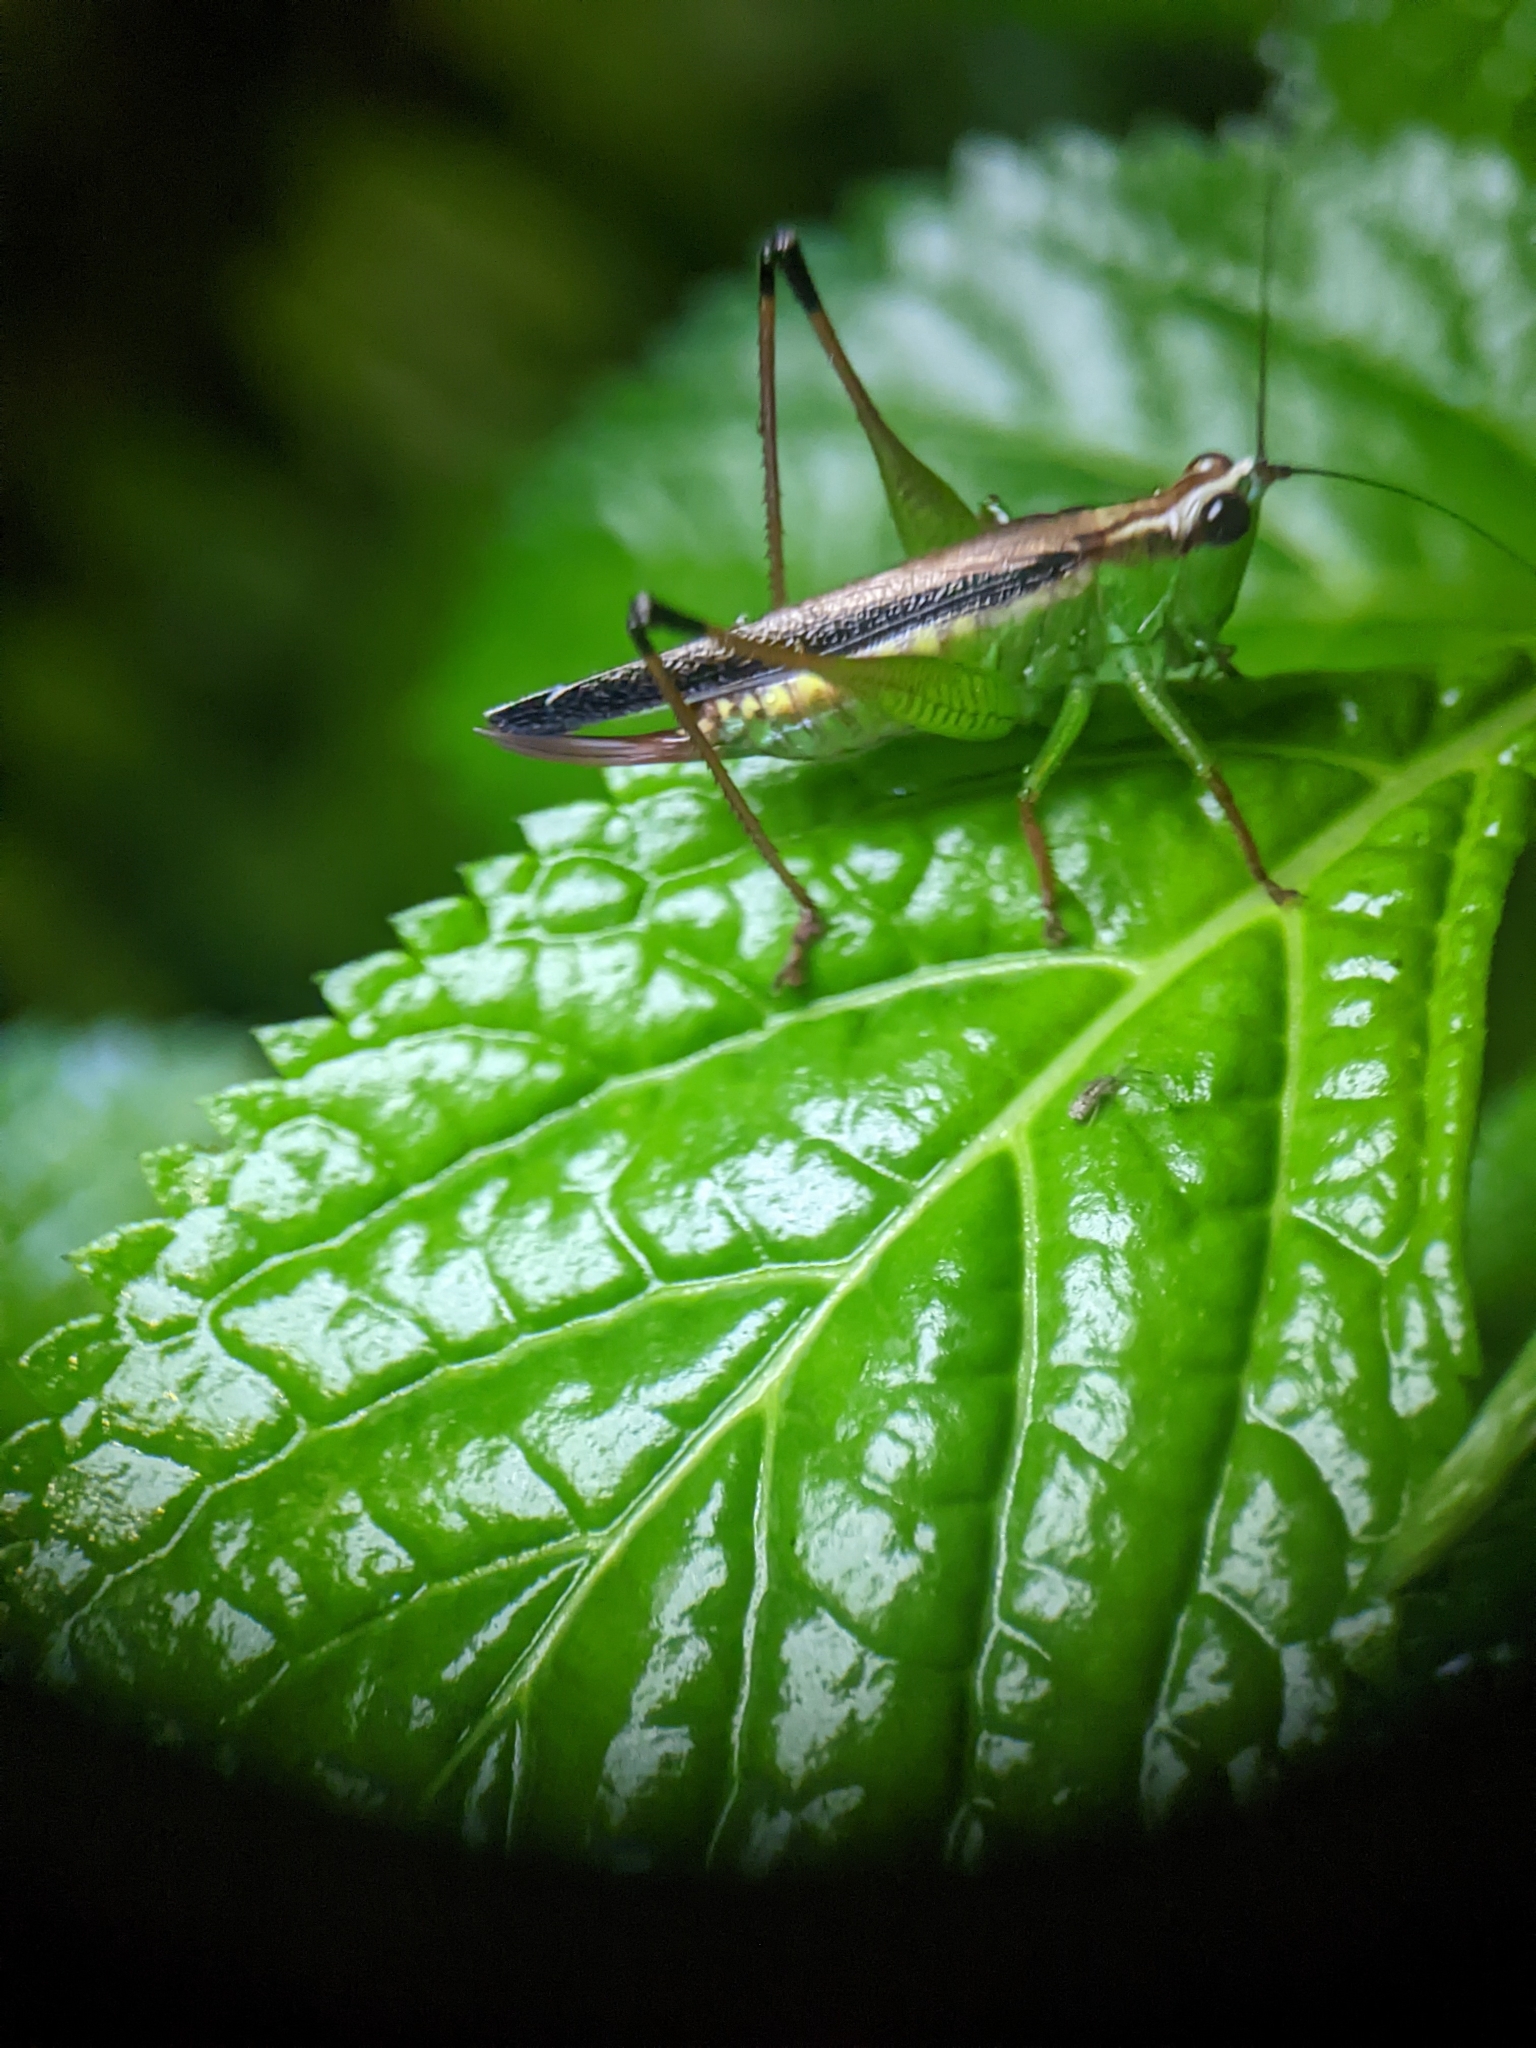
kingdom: Animalia
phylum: Arthropoda
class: Insecta
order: Orthoptera
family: Tettigoniidae
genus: Conocephalus
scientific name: Conocephalus melaenus
